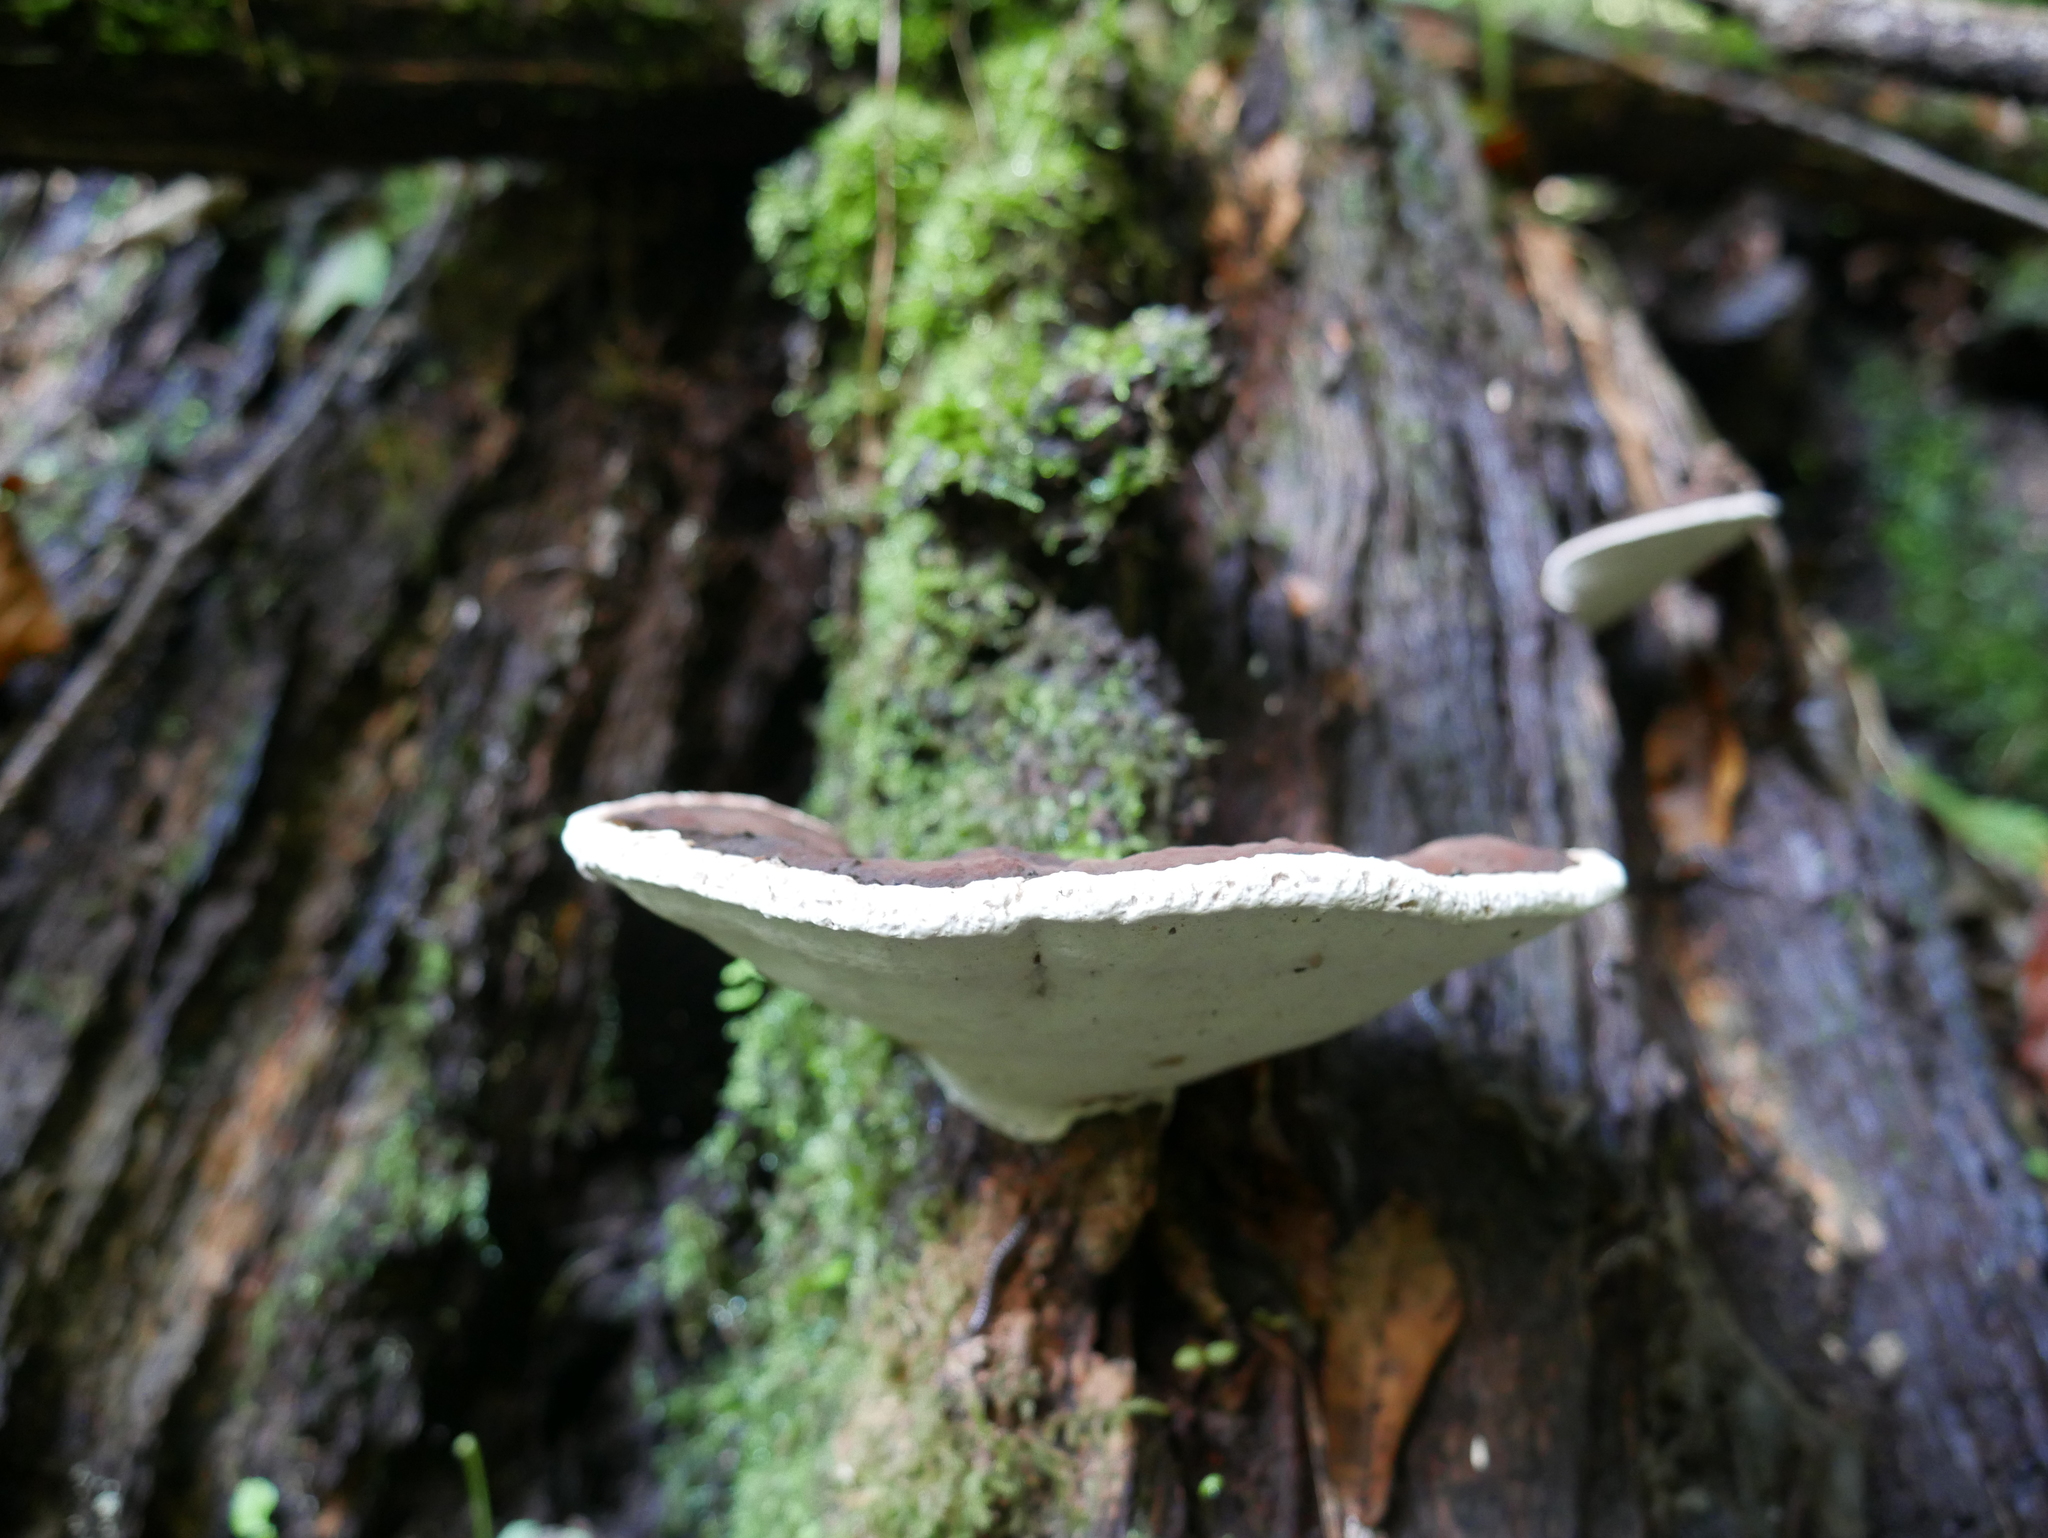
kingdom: Fungi
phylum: Basidiomycota
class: Agaricomycetes
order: Polyporales
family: Polyporaceae
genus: Ganoderma
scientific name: Ganoderma applanatum
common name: Artist's bracket
